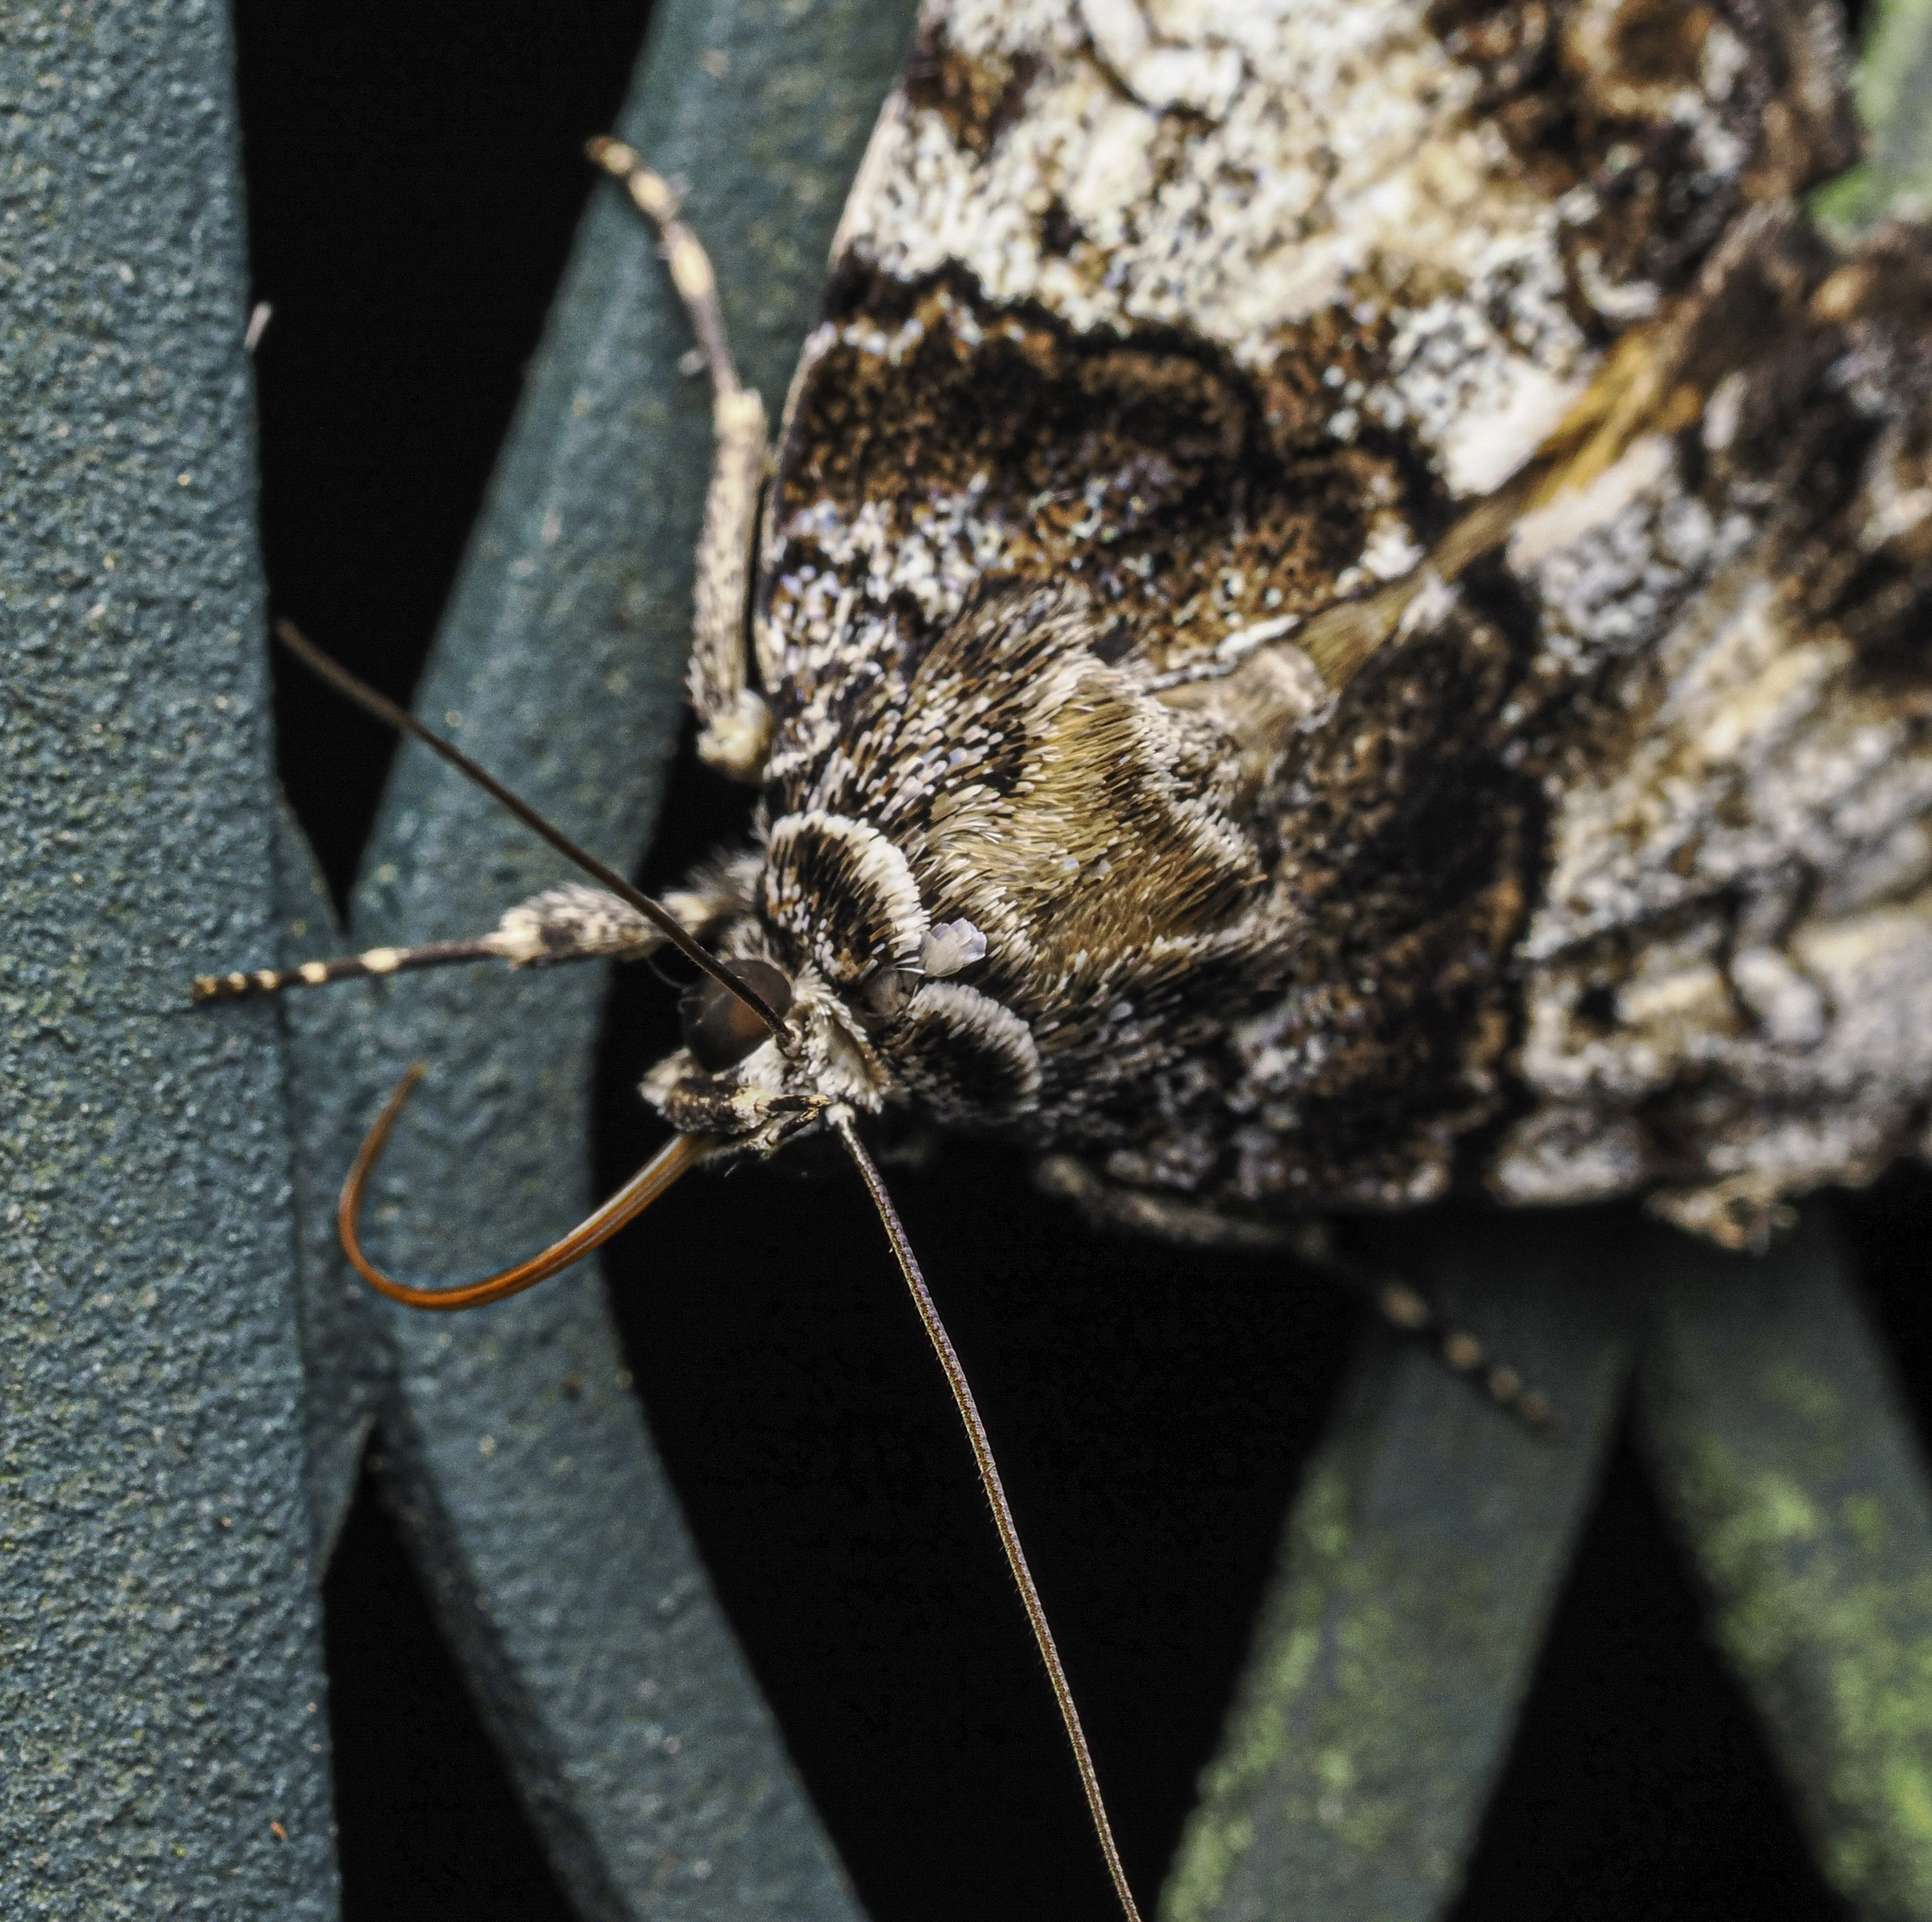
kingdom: Animalia
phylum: Arthropoda
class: Insecta
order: Lepidoptera
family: Erebidae
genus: Allotria
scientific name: Allotria elonympha
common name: False underwing
